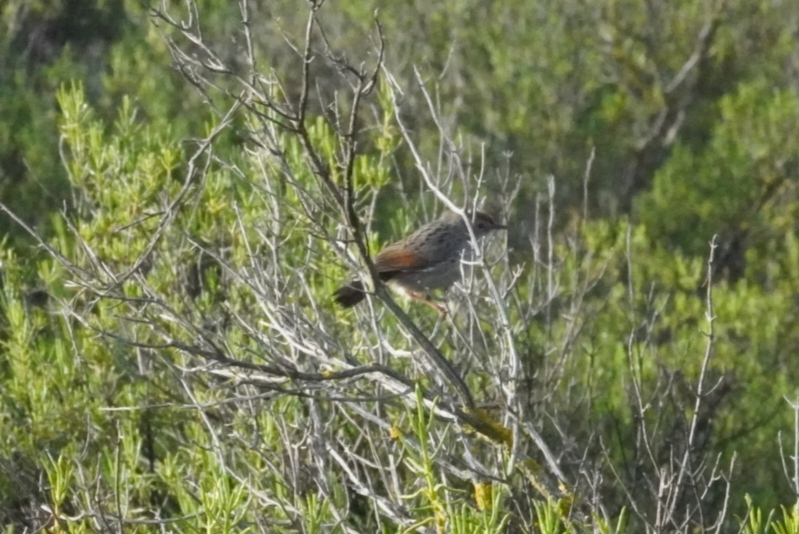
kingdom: Animalia
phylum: Chordata
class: Aves
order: Passeriformes
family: Cisticolidae
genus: Cisticola
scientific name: Cisticola subruficapilla
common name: Grey-backed cisticola
